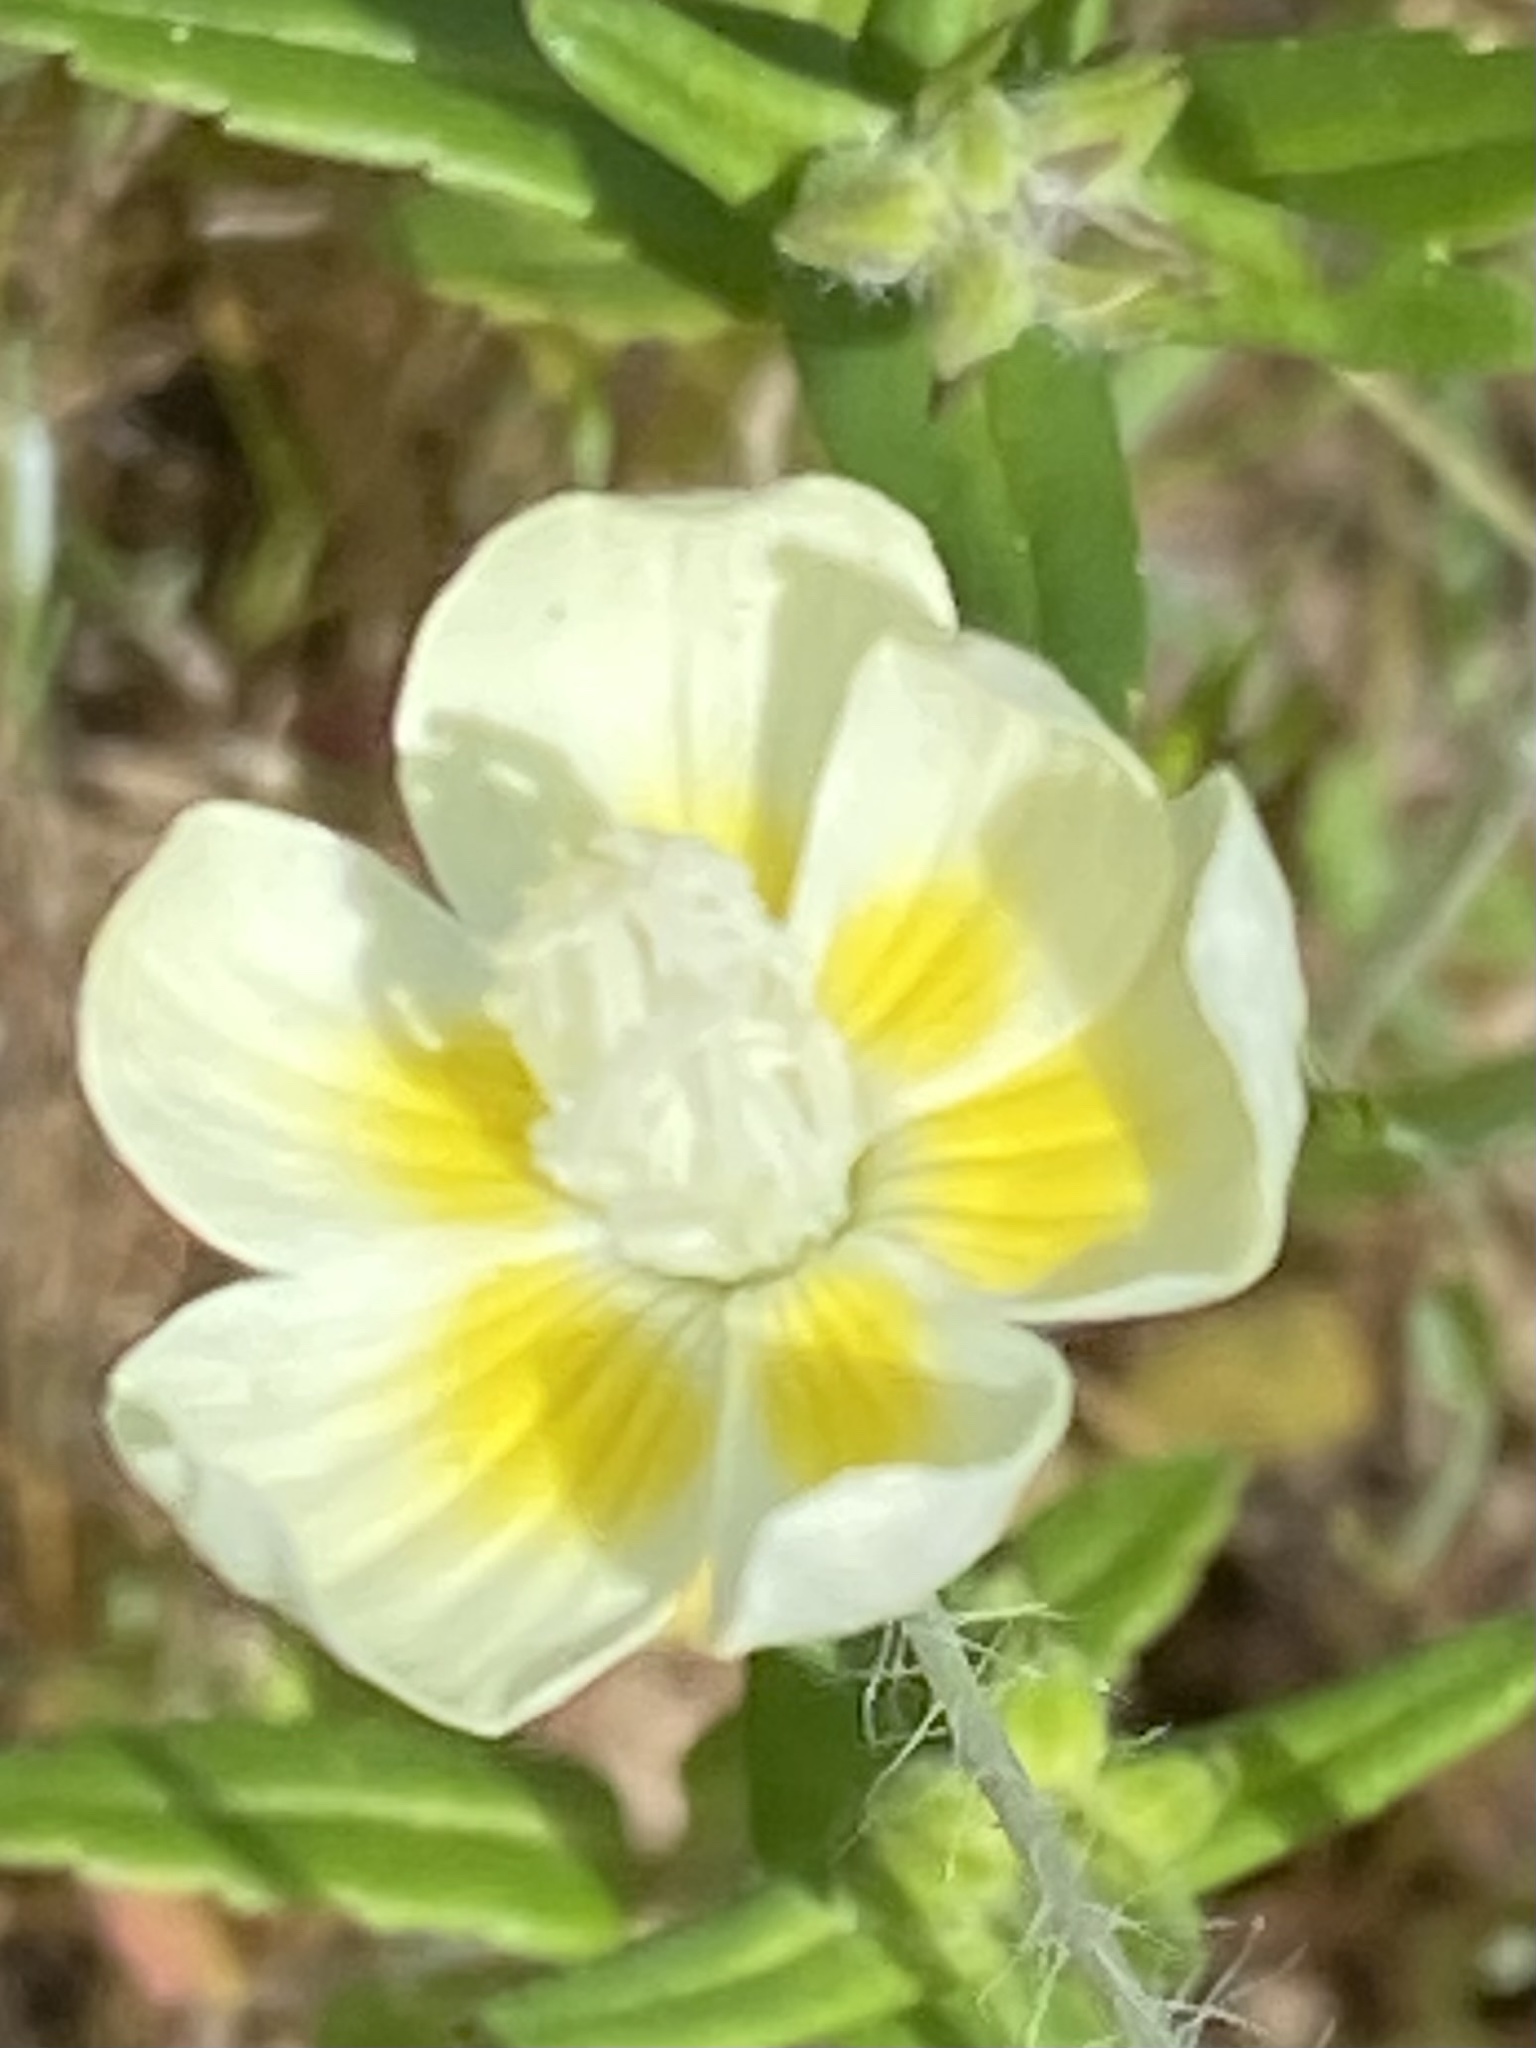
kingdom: Plantae
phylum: Tracheophyta
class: Magnoliopsida
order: Ranunculales
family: Papaveraceae
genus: Platystemon
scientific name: Platystemon californicus
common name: Cream-cups
